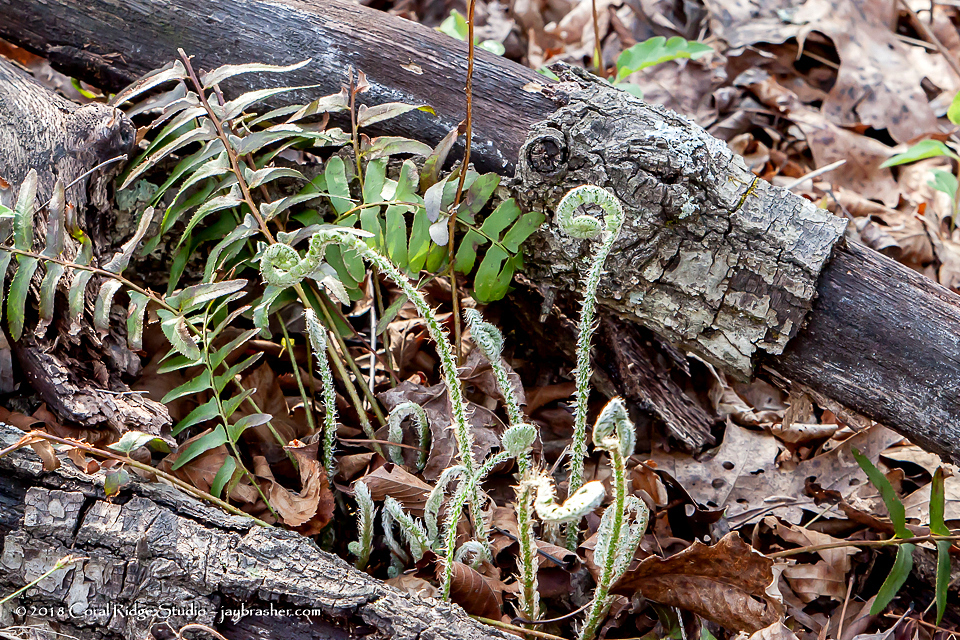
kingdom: Plantae
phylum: Tracheophyta
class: Polypodiopsida
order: Polypodiales
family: Dryopteridaceae
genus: Polystichum
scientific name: Polystichum acrostichoides
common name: Christmas fern
